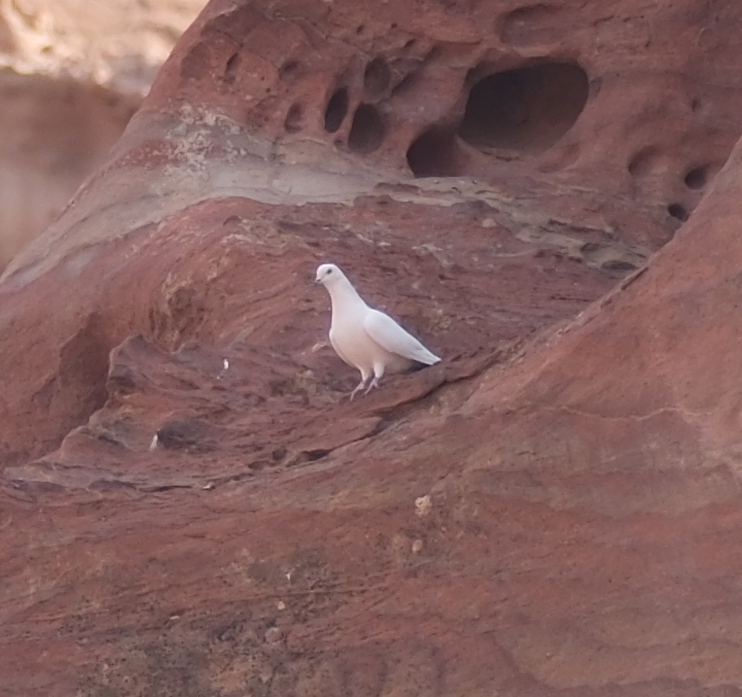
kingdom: Animalia
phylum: Chordata
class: Aves
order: Columbiformes
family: Columbidae
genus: Columba
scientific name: Columba livia
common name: Rock pigeon
